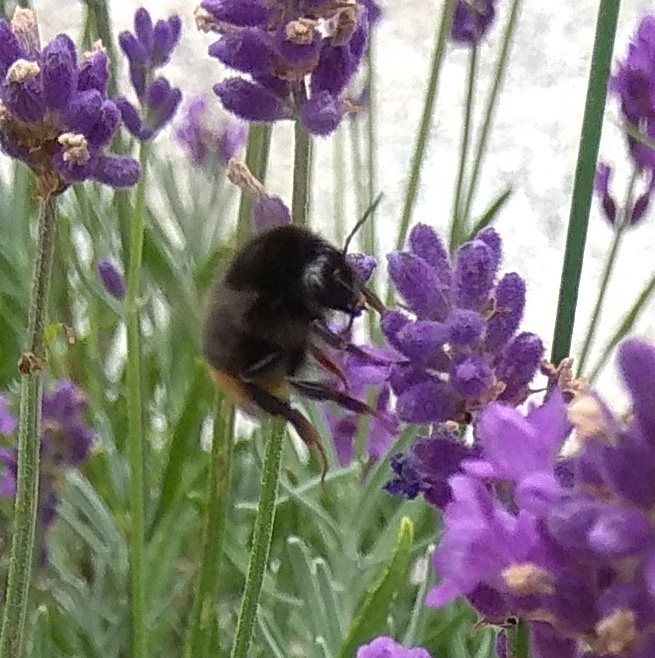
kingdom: Animalia
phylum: Arthropoda
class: Insecta
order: Hymenoptera
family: Apidae
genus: Bombus
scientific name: Bombus lapidarius
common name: Large red-tailed humble-bee
